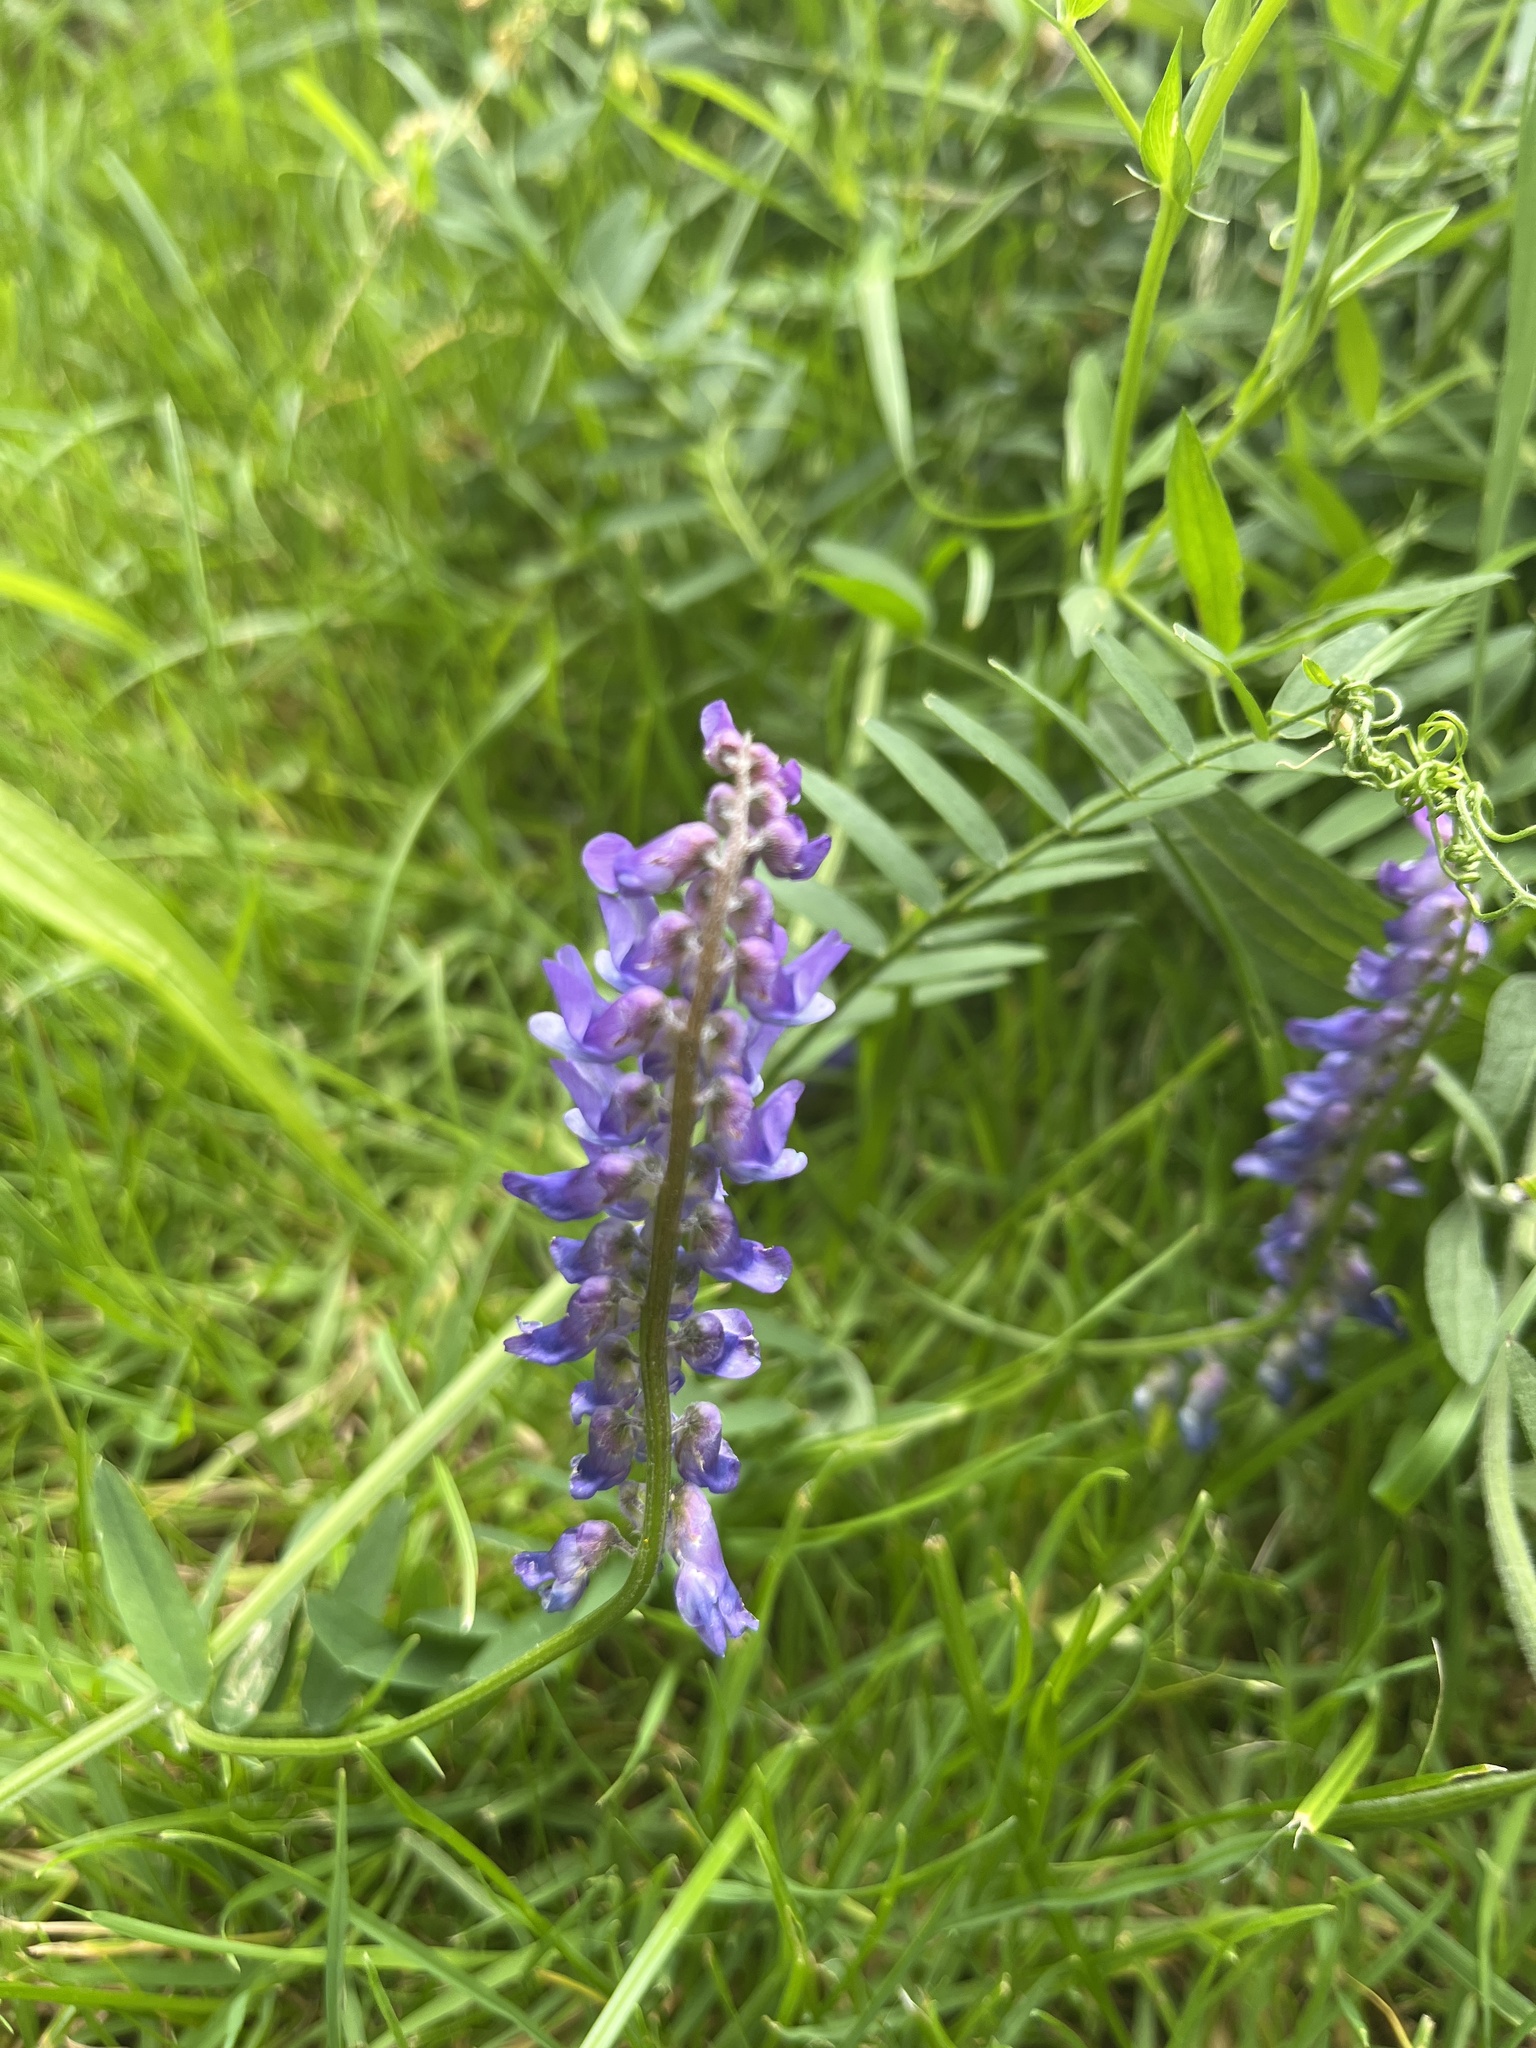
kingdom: Plantae
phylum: Tracheophyta
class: Magnoliopsida
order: Fabales
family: Fabaceae
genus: Vicia
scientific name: Vicia cracca
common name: Bird vetch
